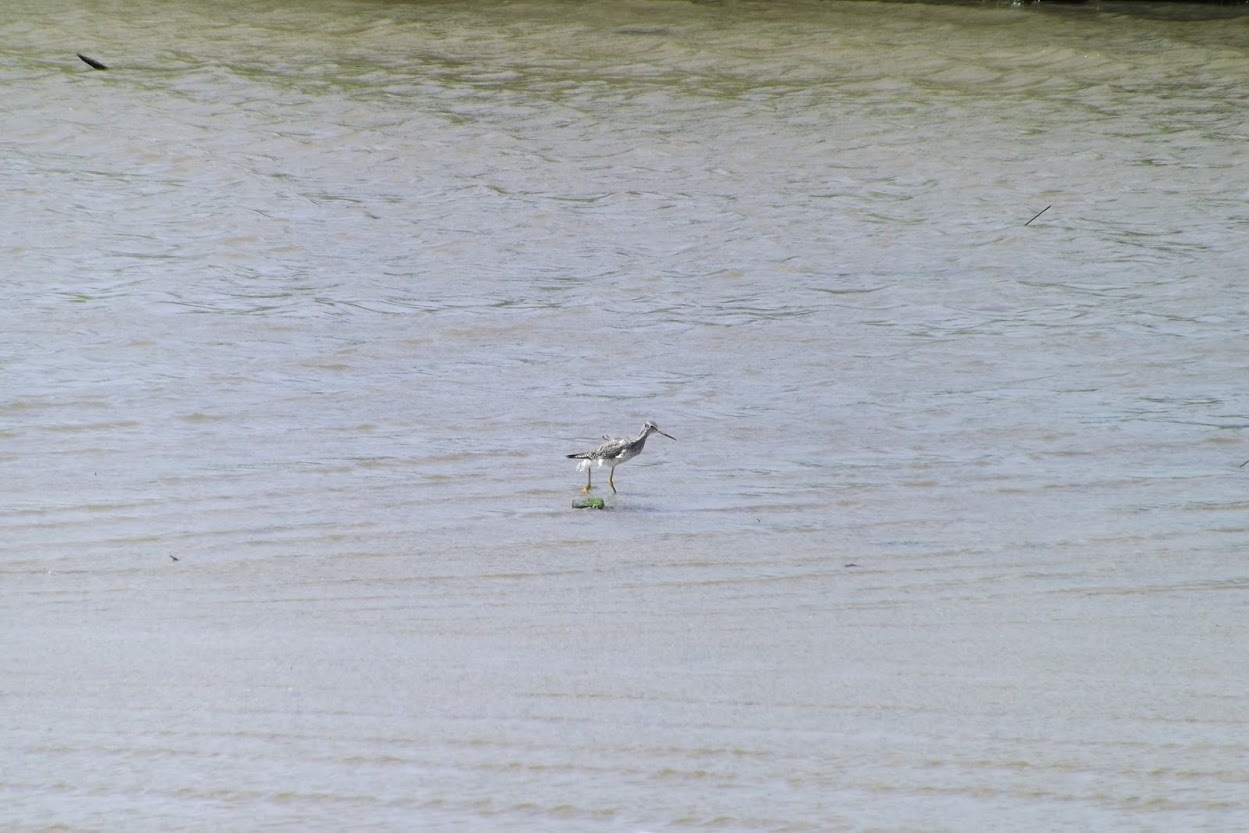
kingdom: Animalia
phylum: Chordata
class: Aves
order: Charadriiformes
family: Scolopacidae
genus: Tringa
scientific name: Tringa melanoleuca
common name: Greater yellowlegs
